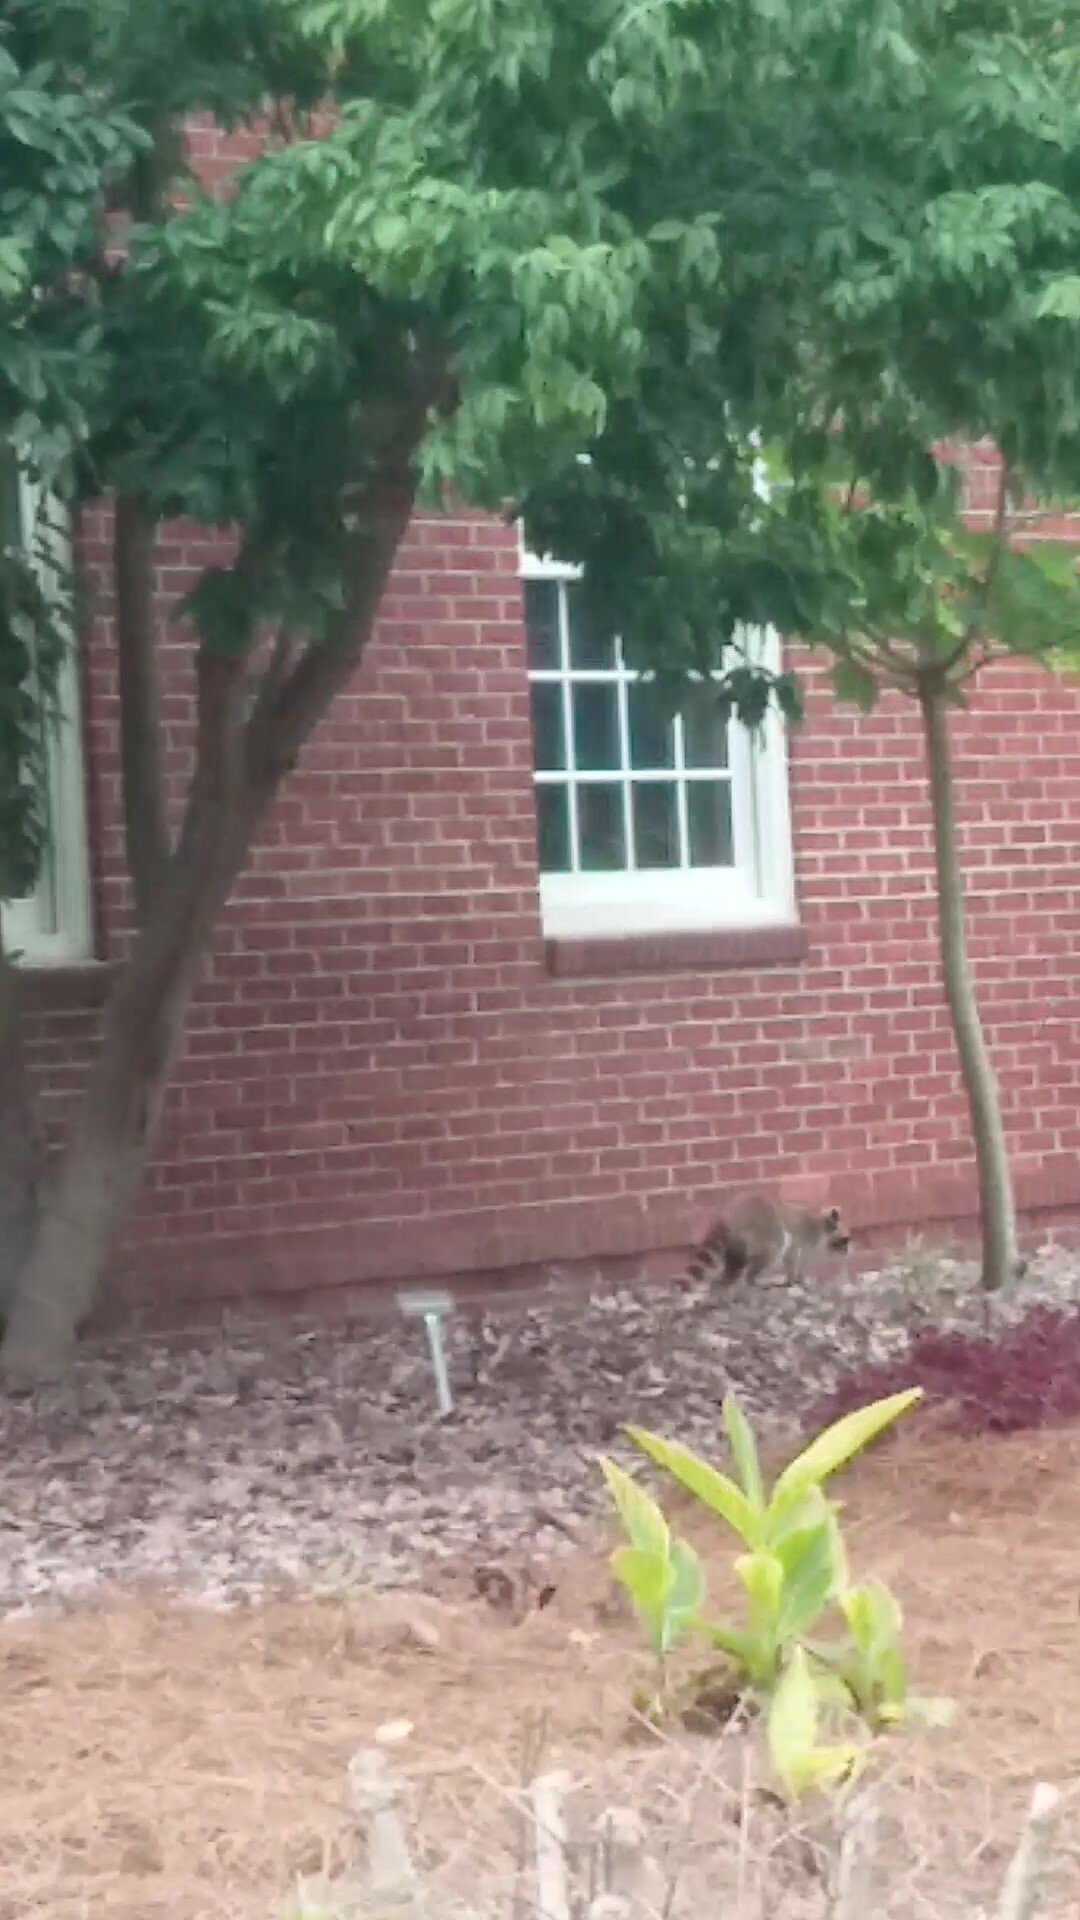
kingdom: Animalia
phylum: Chordata
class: Mammalia
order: Carnivora
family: Procyonidae
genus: Procyon
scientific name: Procyon lotor
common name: Raccoon
